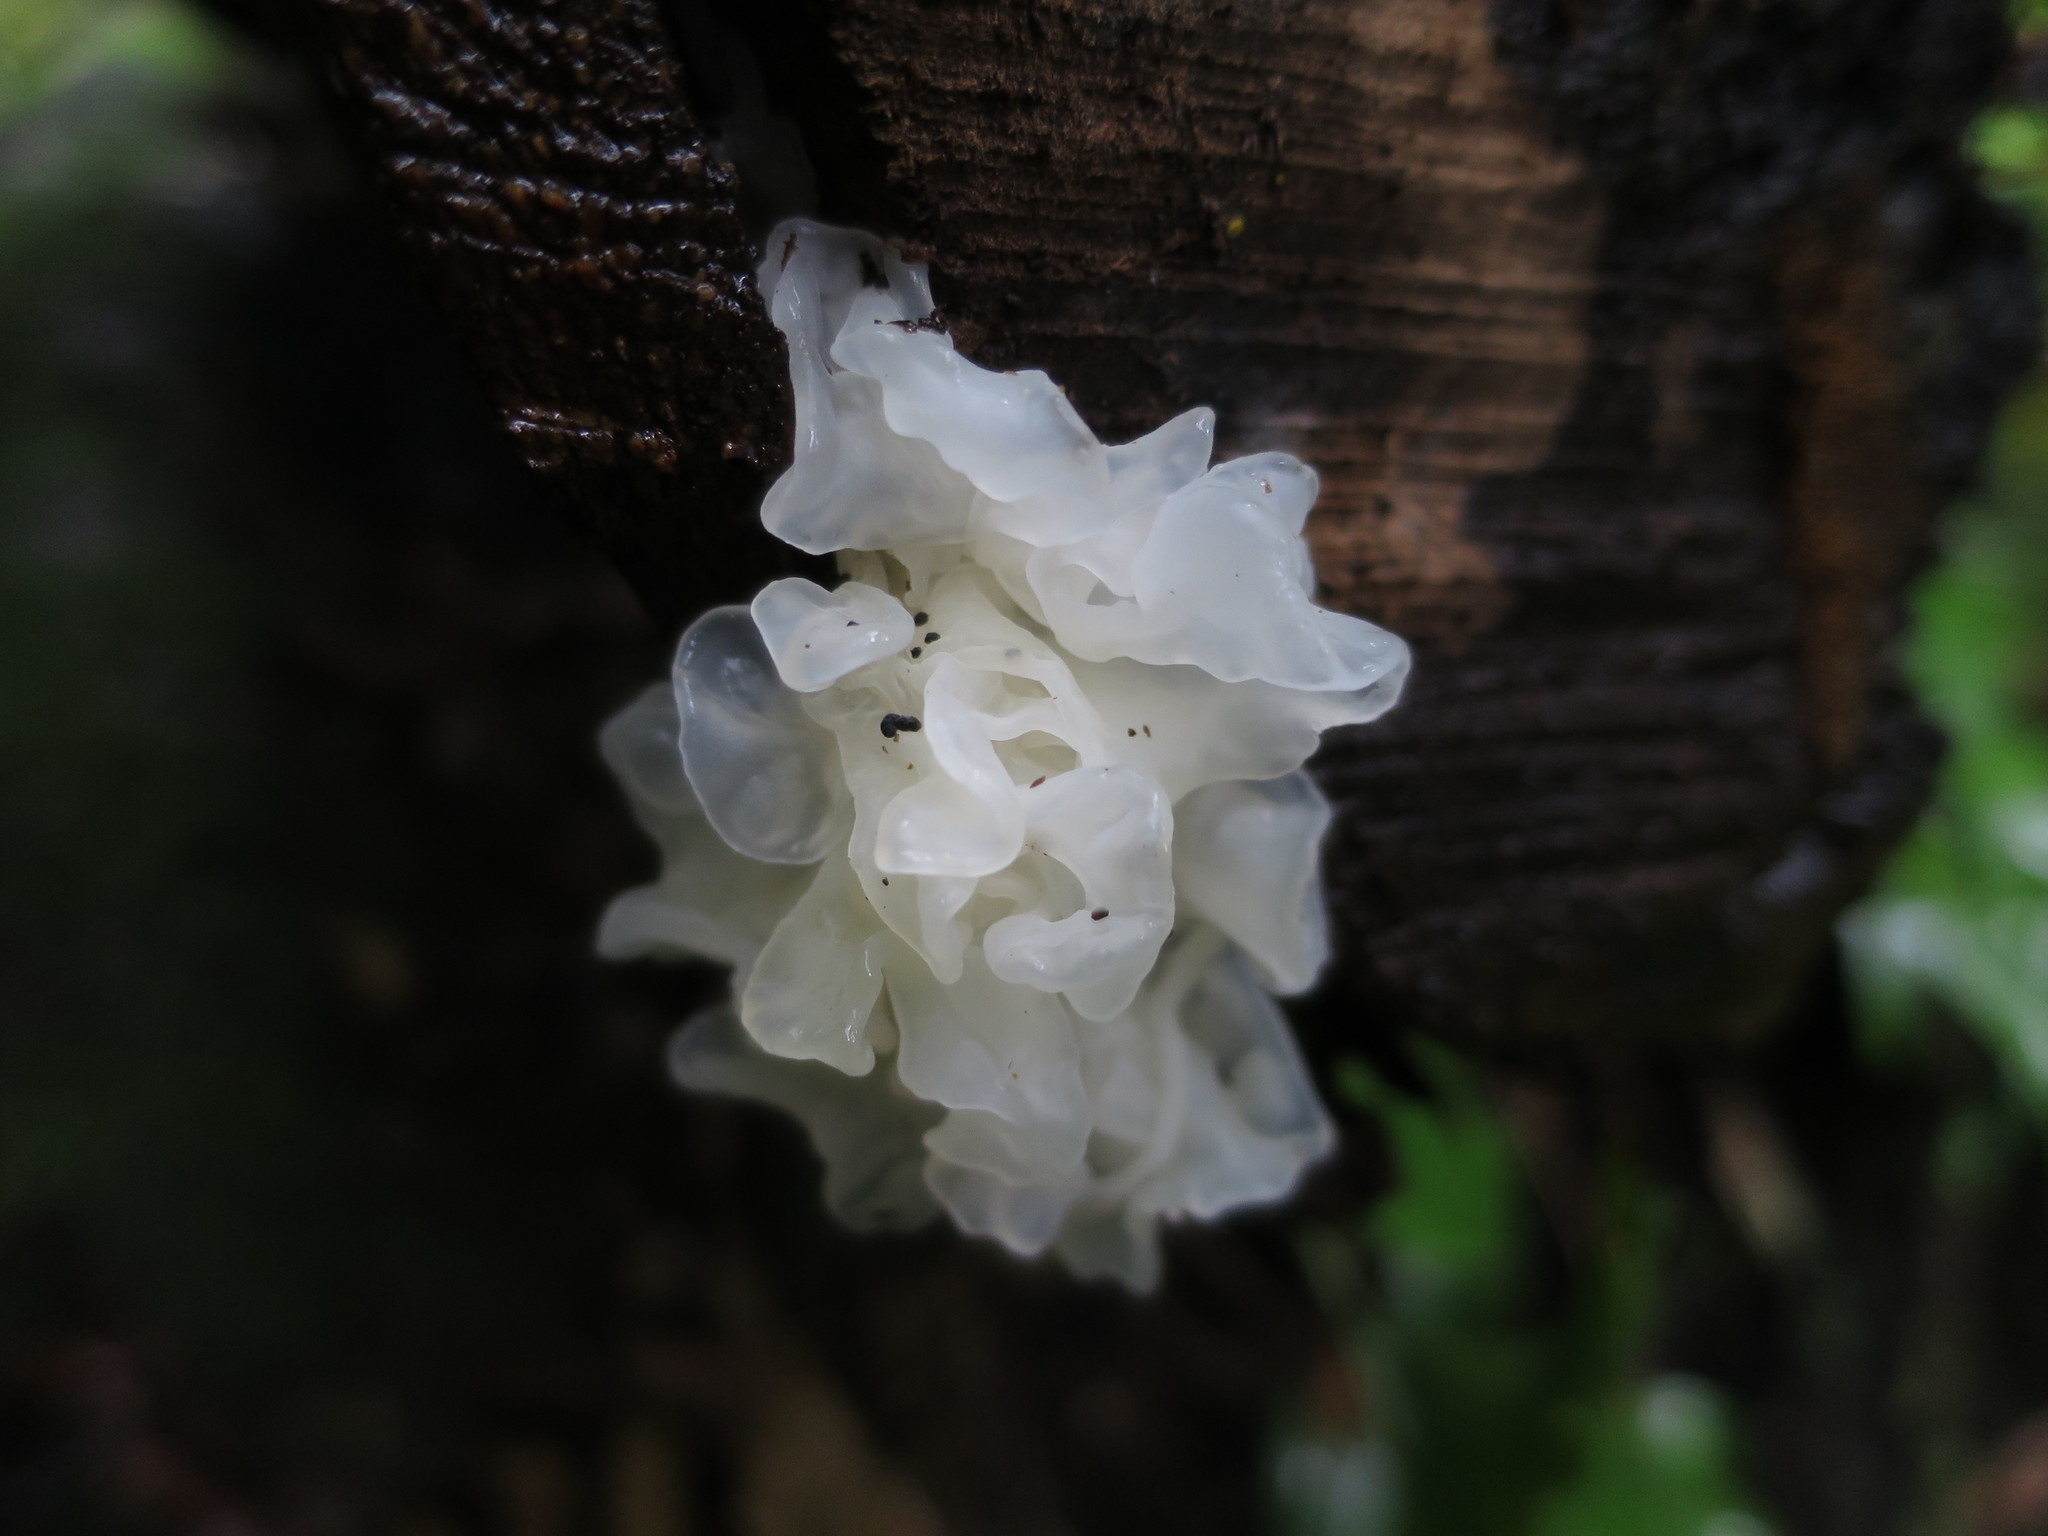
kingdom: Fungi
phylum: Basidiomycota
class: Tremellomycetes
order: Tremellales
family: Tremellaceae
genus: Tremella
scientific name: Tremella fuciformis
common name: Snow fungus
